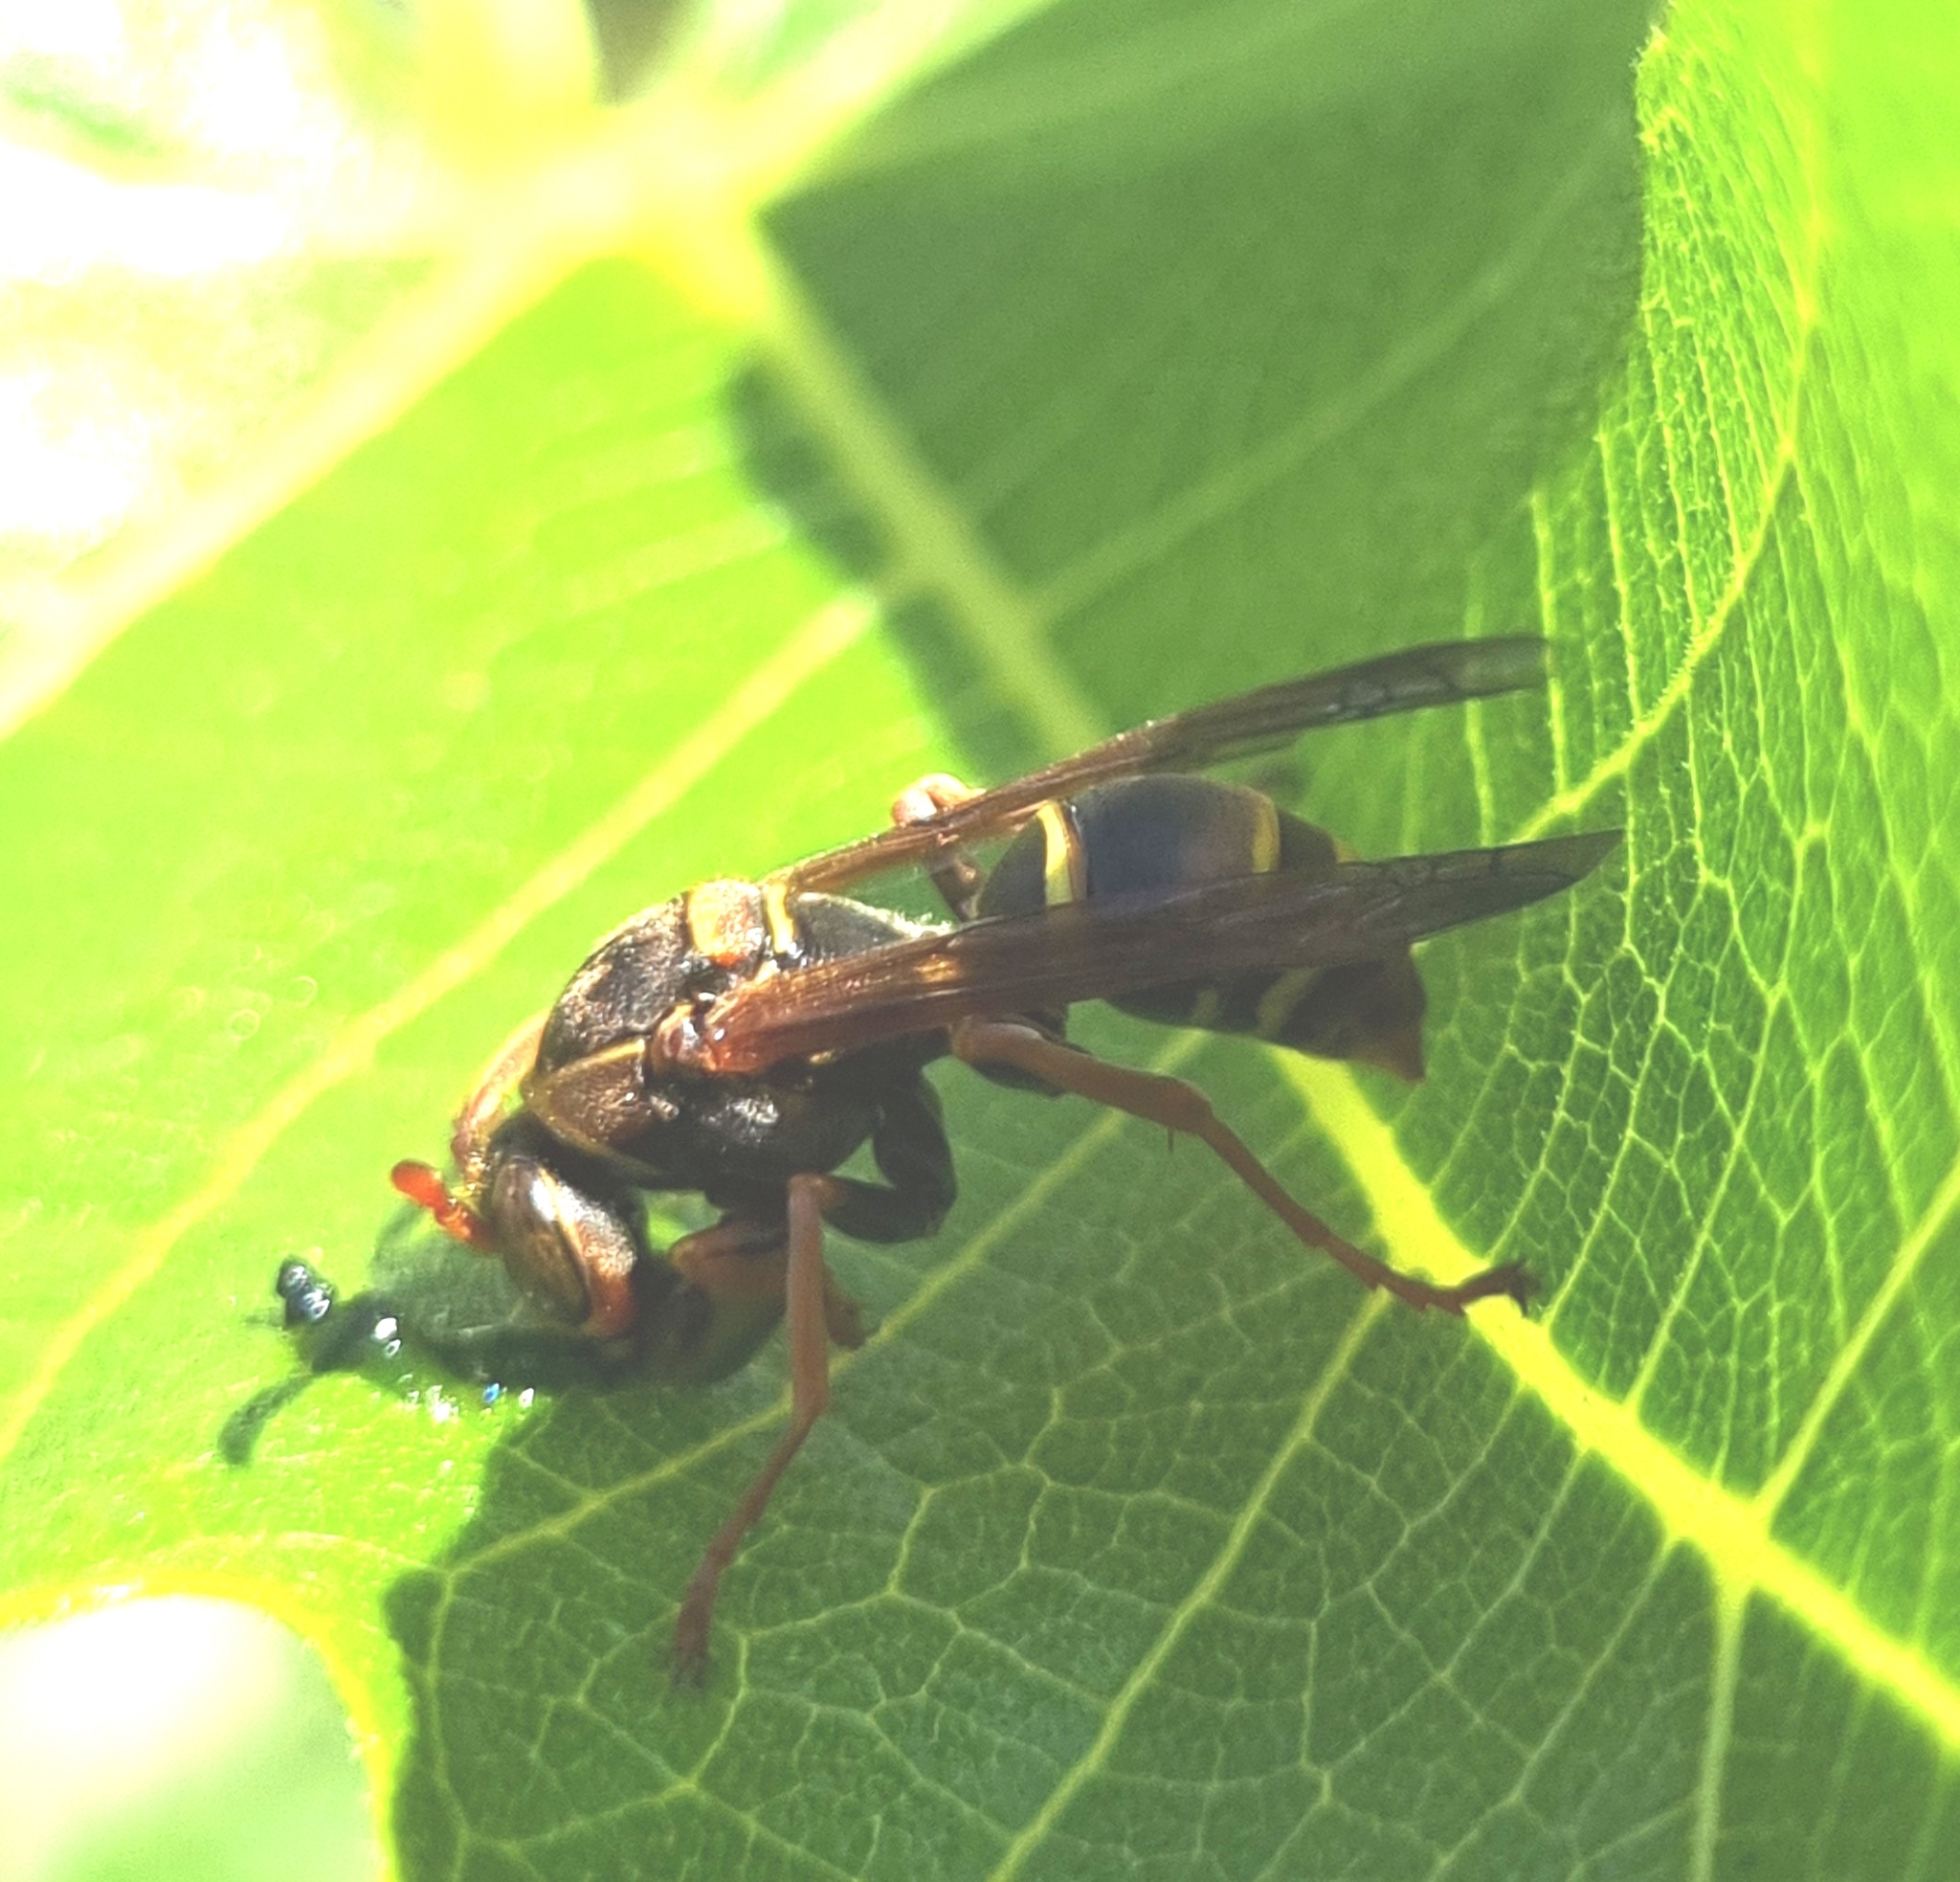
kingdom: Animalia
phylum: Arthropoda
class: Insecta
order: Hymenoptera
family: Eumenidae
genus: Polistes
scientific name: Polistes humilis
